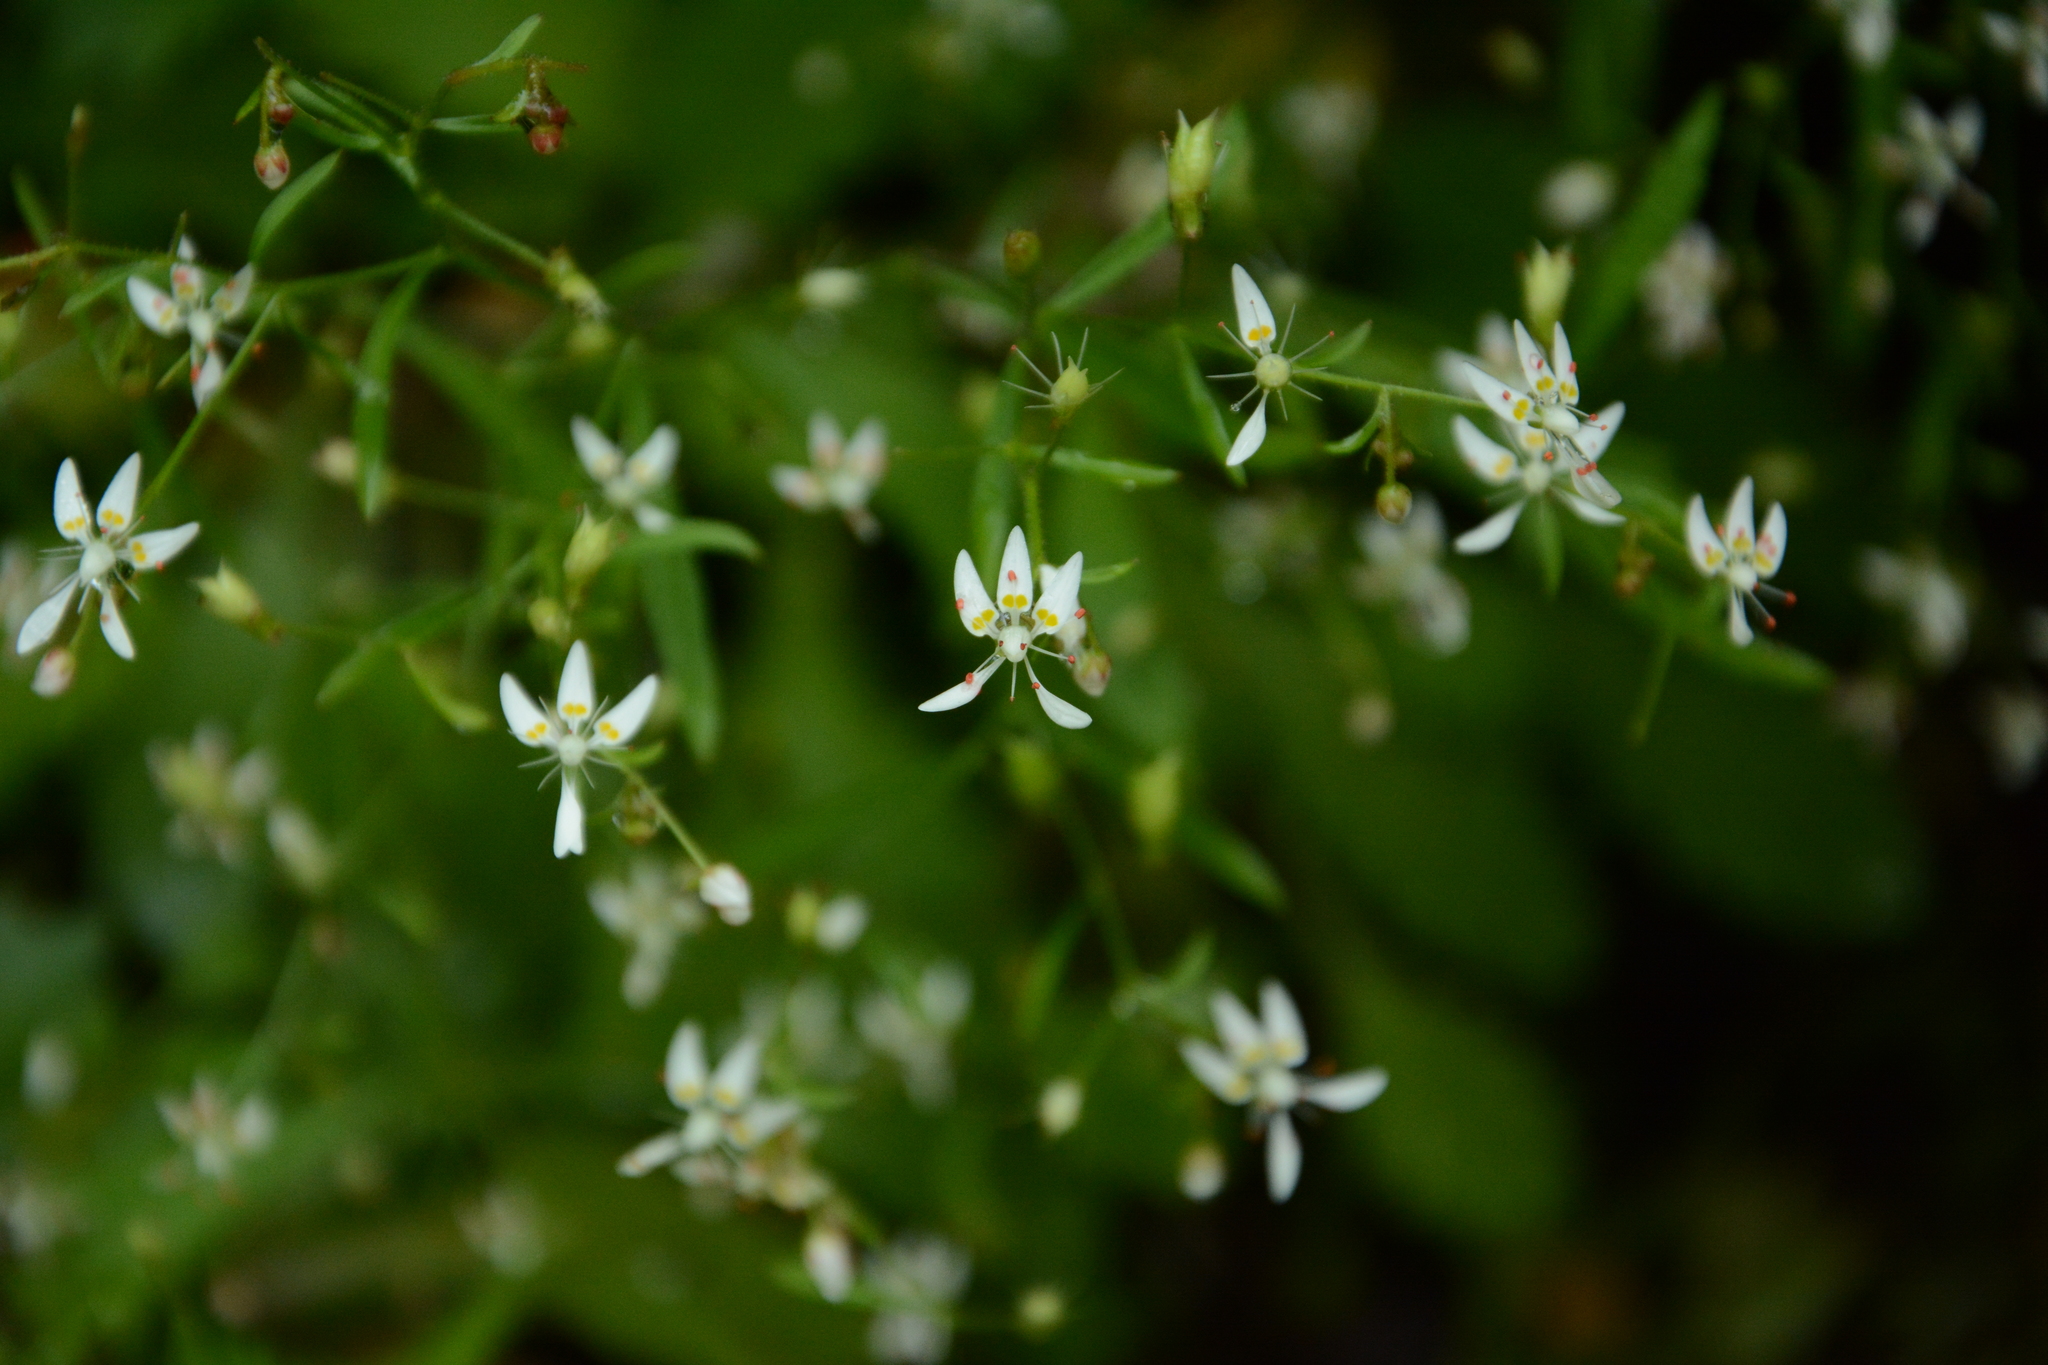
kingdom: Plantae
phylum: Tracheophyta
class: Magnoliopsida
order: Saxifragales
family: Saxifragaceae
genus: Micranthes
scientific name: Micranthes petiolaris
